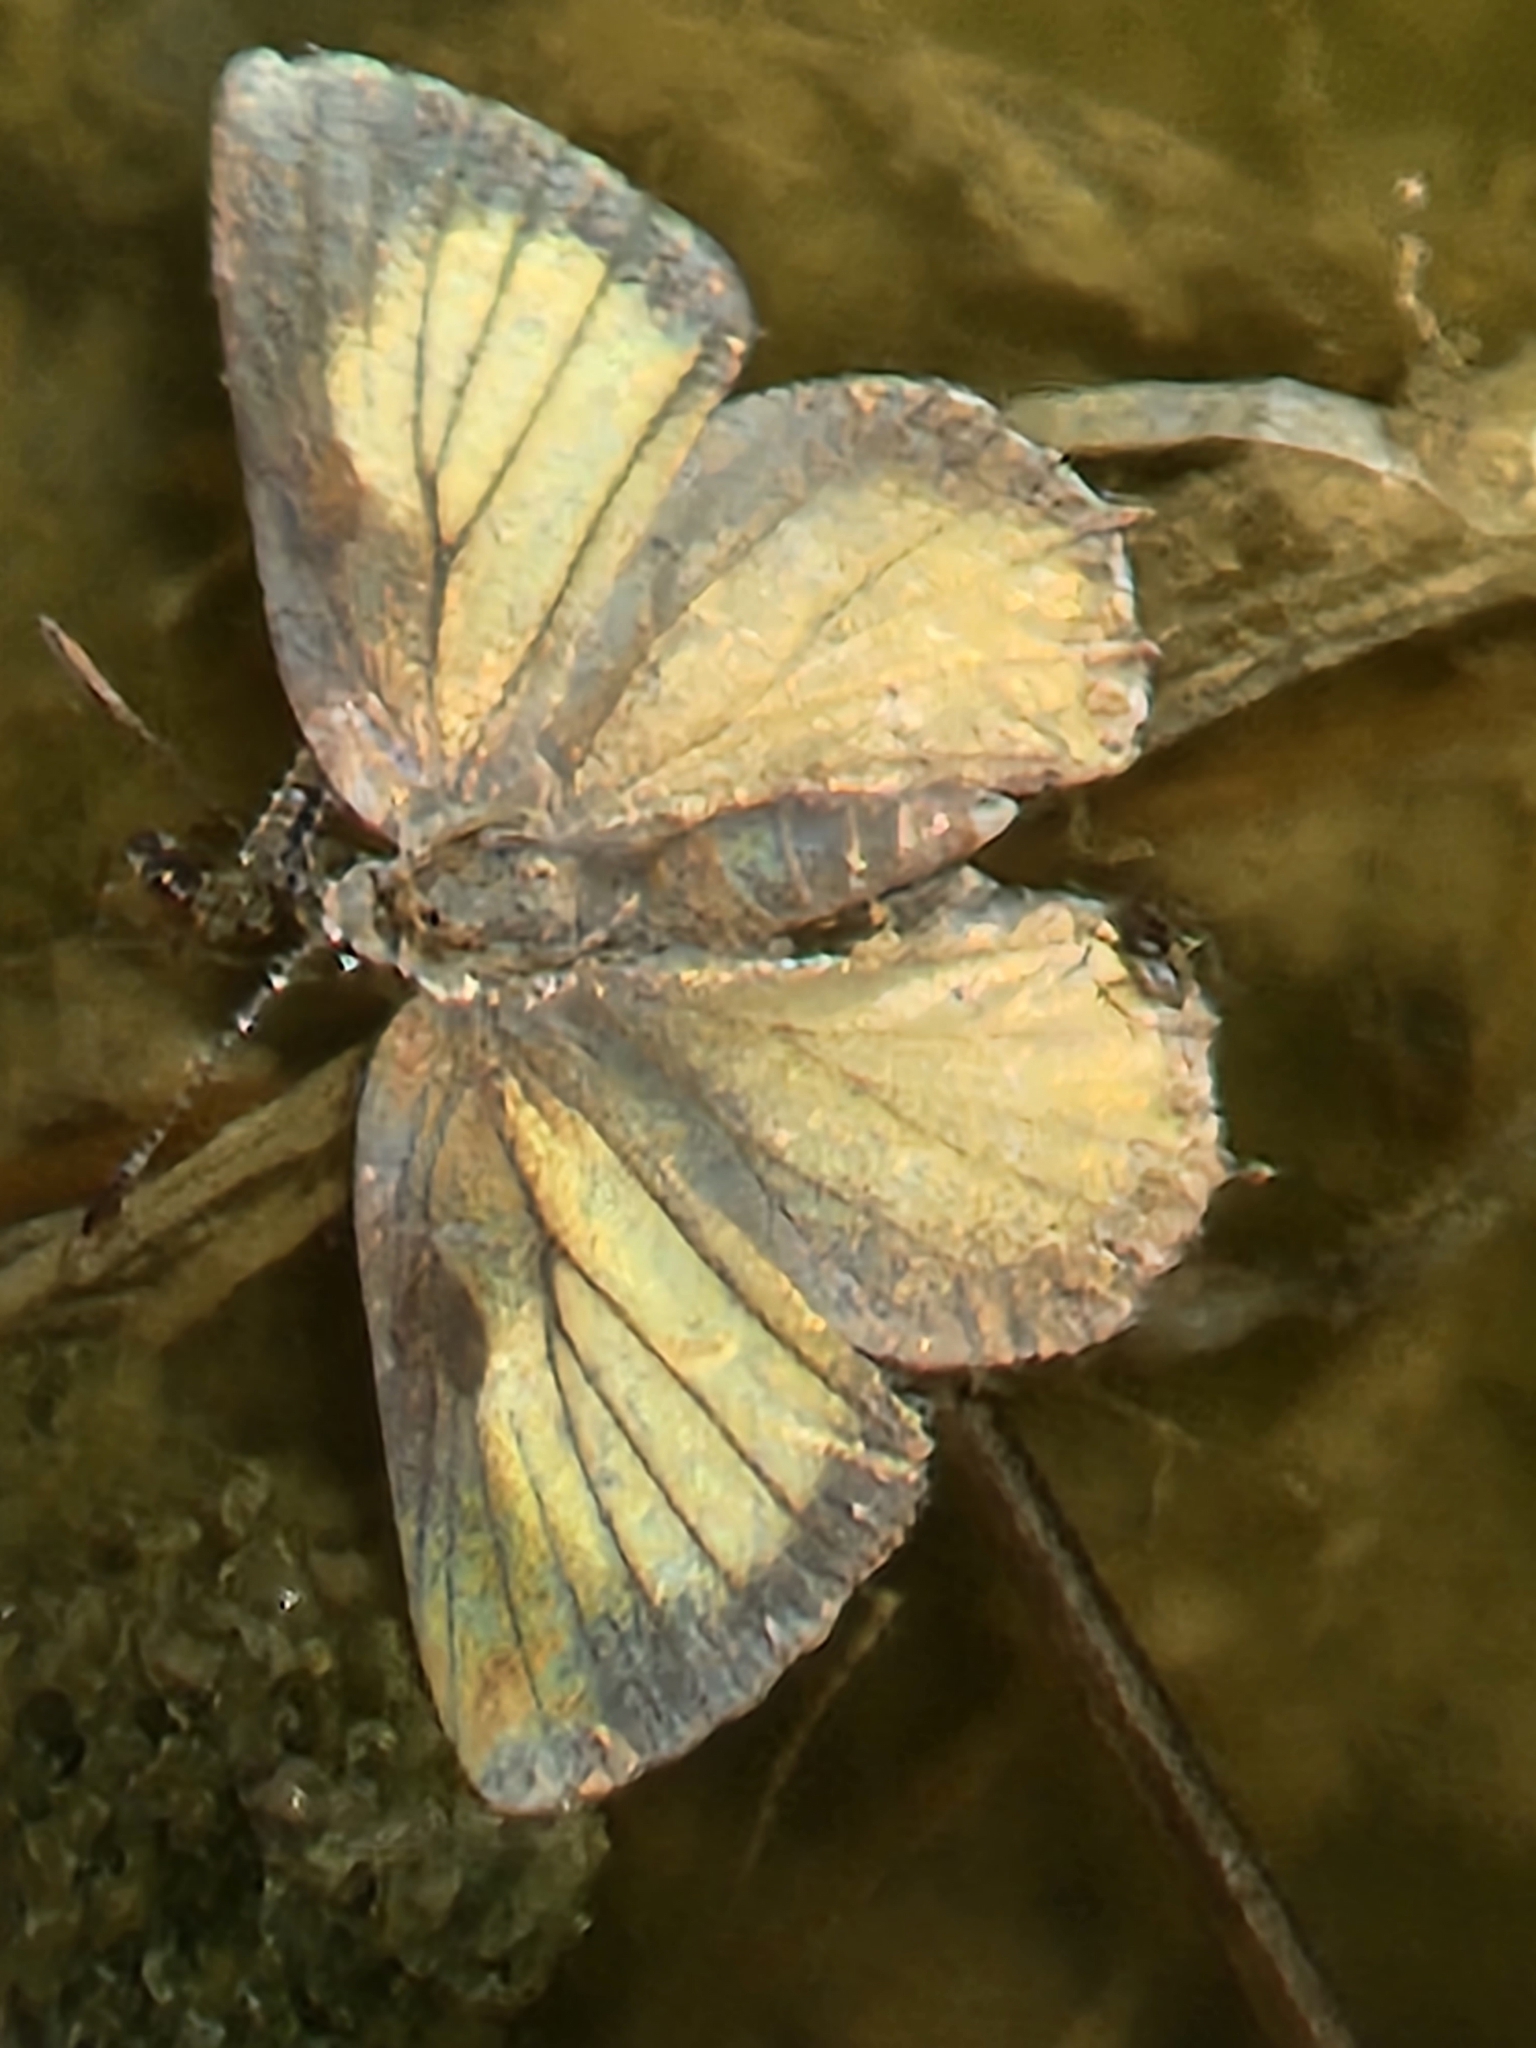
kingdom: Animalia
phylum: Arthropoda
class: Insecta
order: Lepidoptera
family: Lycaenidae
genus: Mitoura
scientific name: Mitoura gryneus
